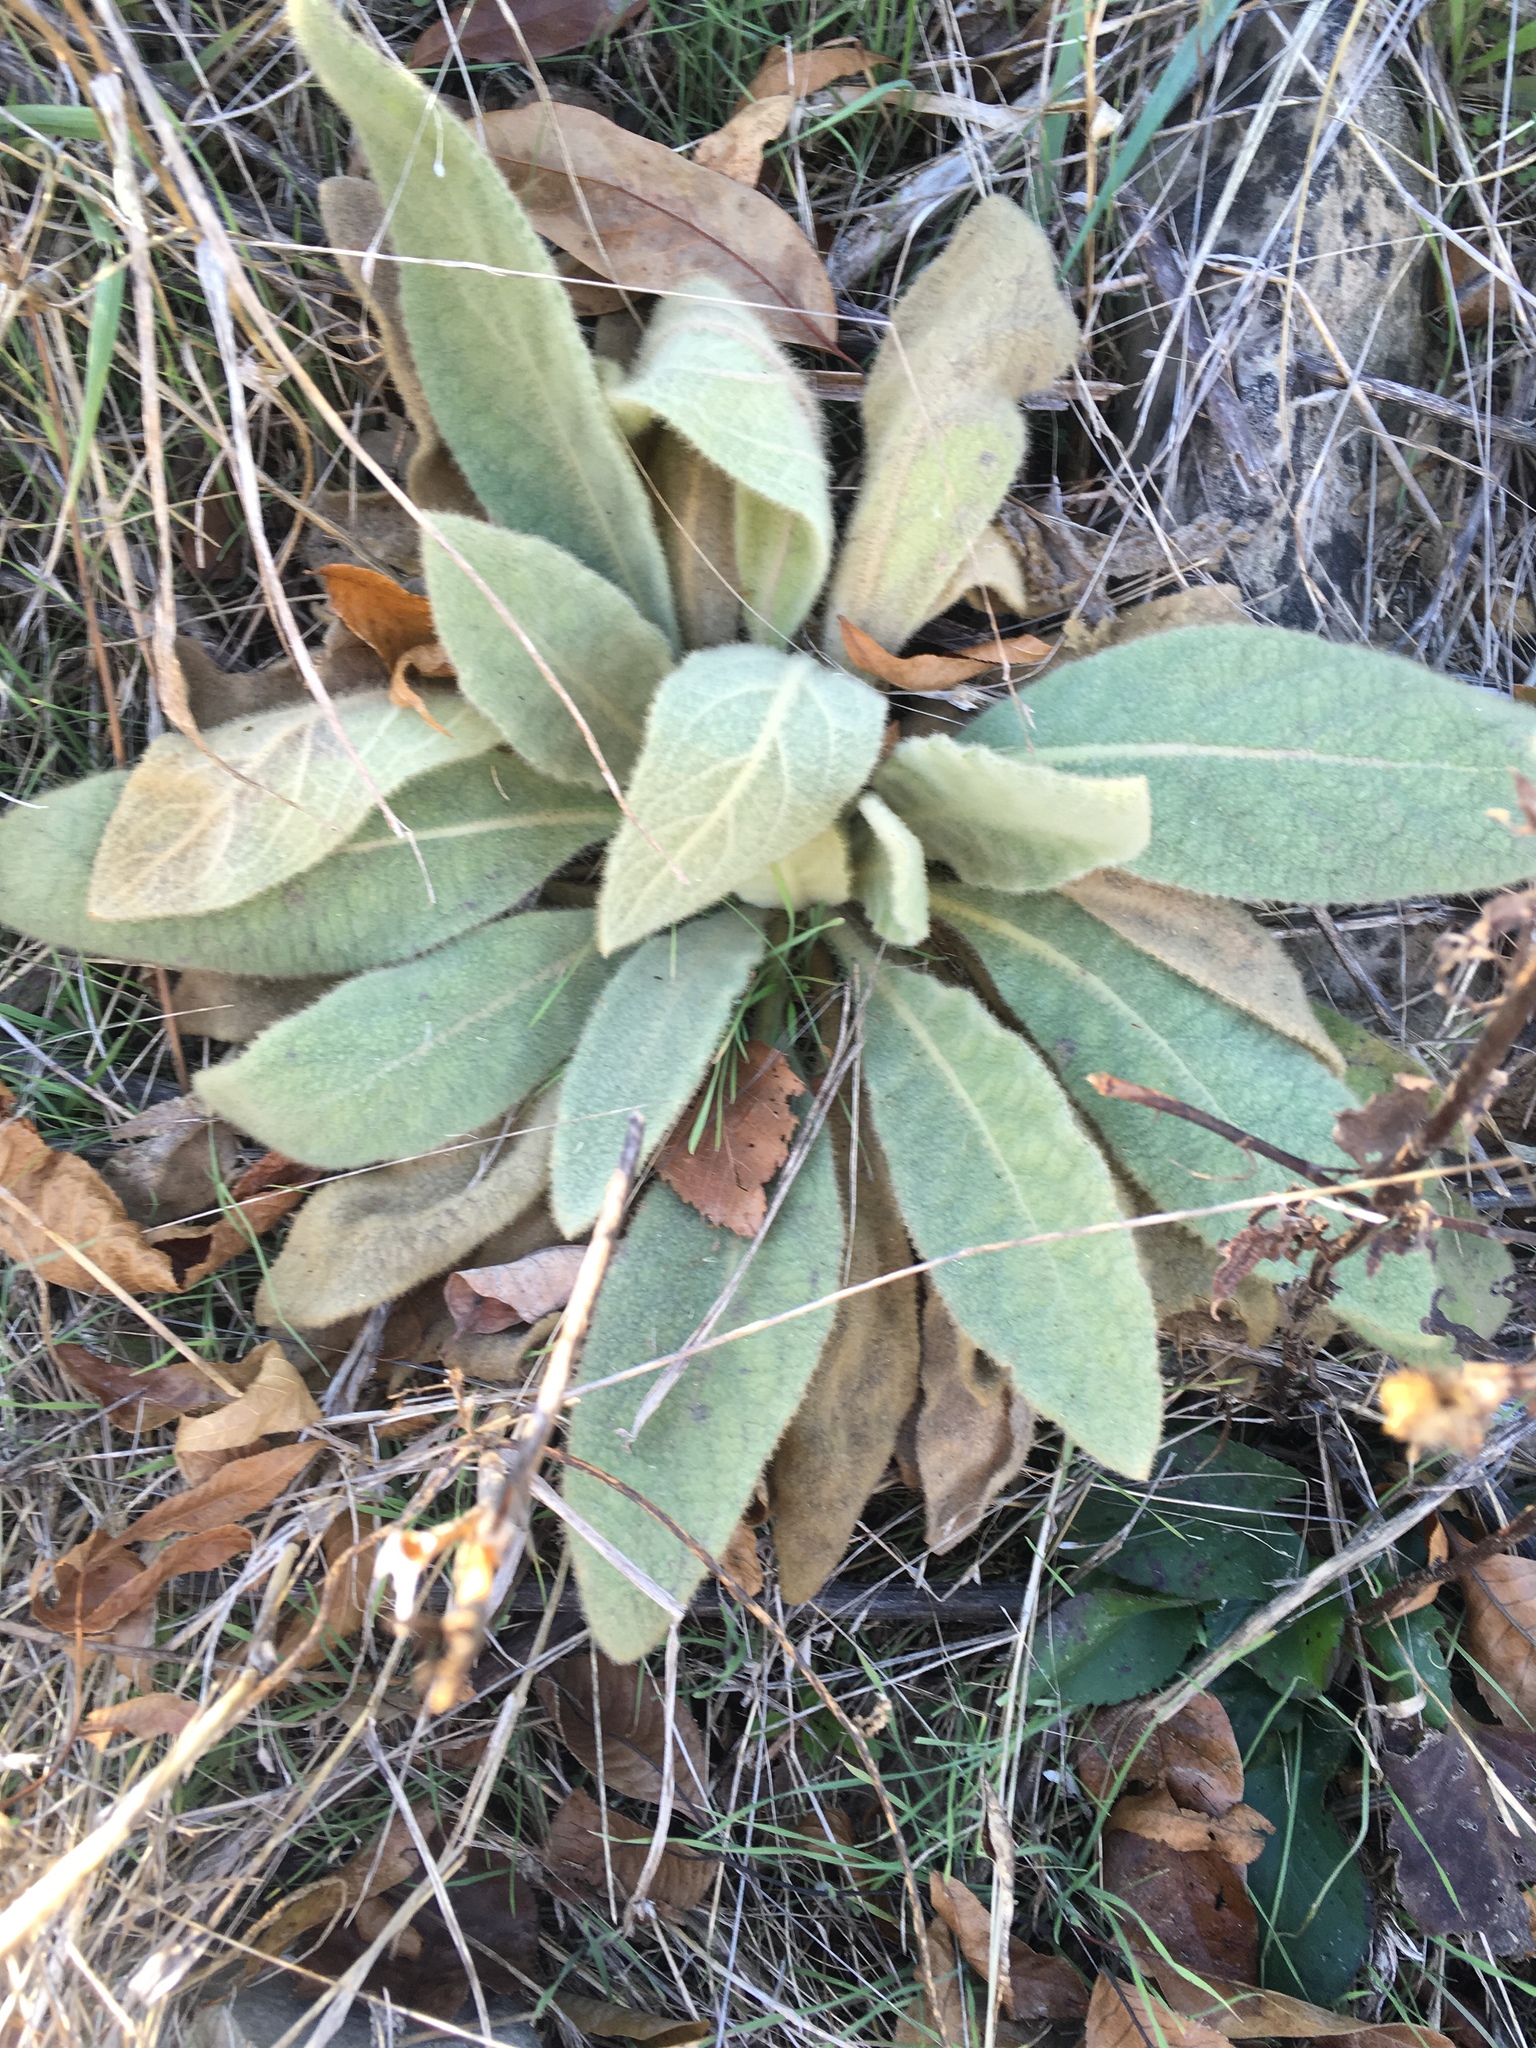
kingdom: Plantae
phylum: Tracheophyta
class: Magnoliopsida
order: Lamiales
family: Scrophulariaceae
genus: Verbascum
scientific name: Verbascum thapsus
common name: Common mullein
